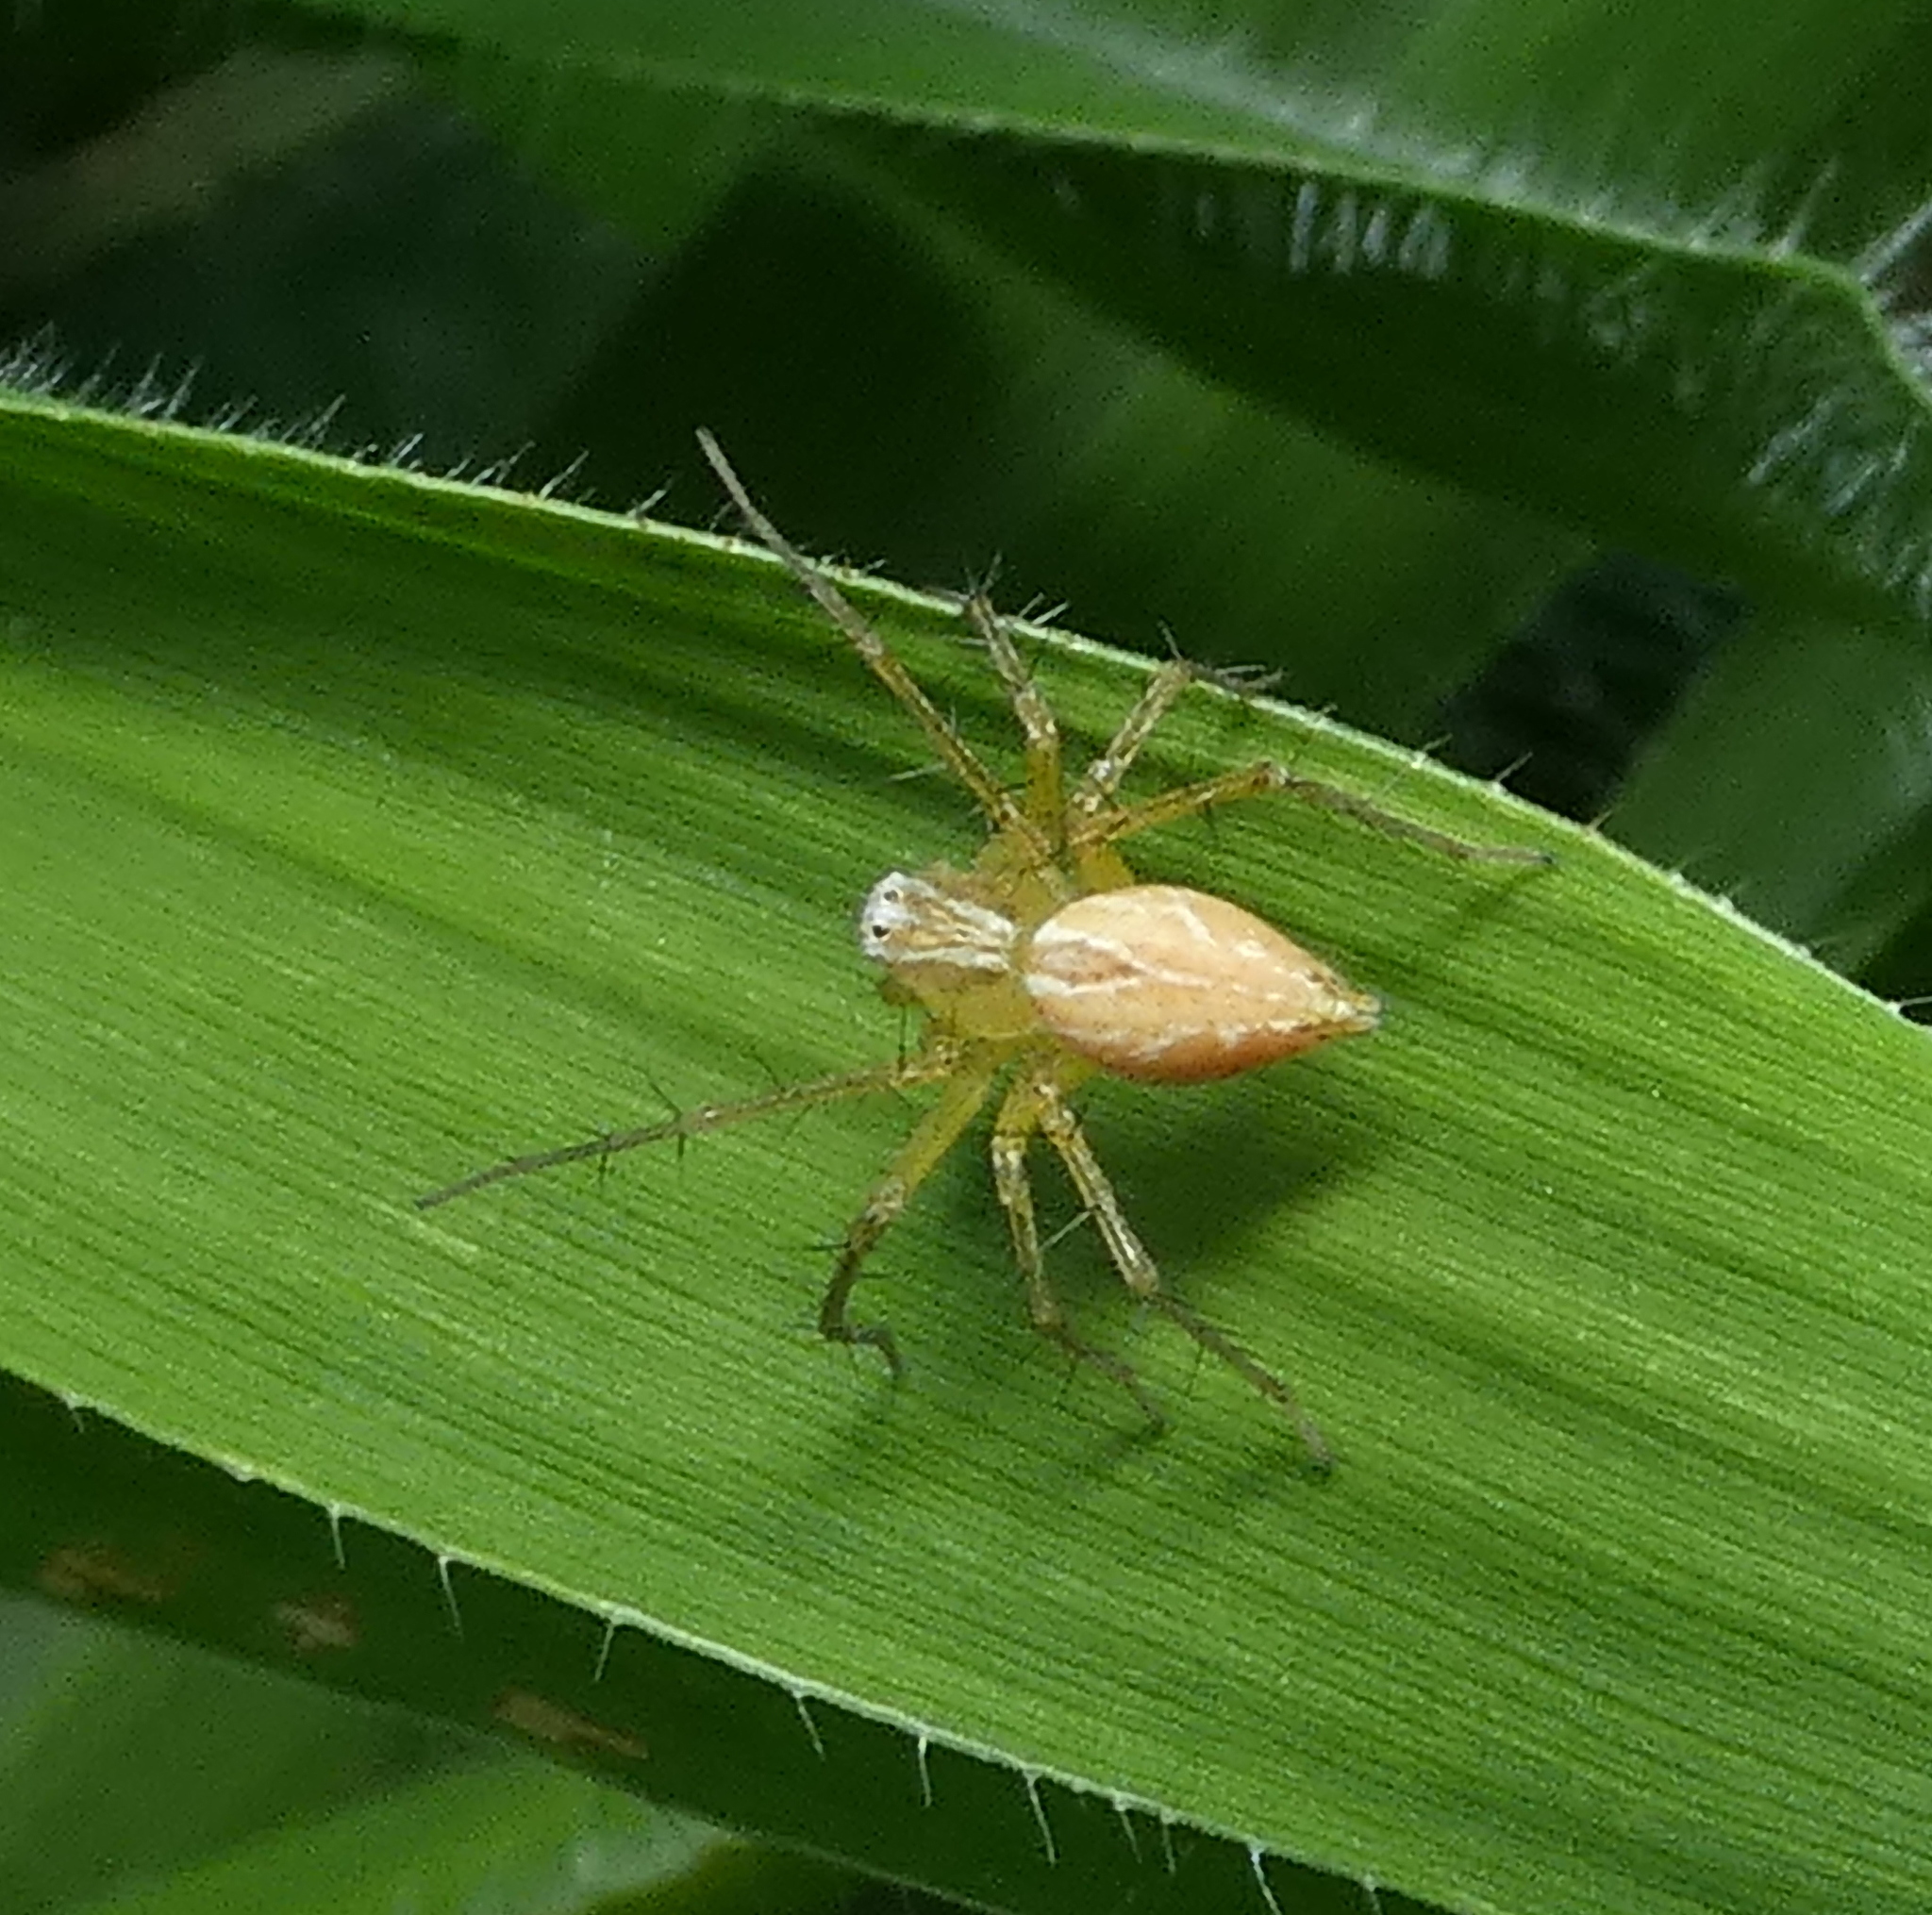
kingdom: Animalia
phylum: Arthropoda
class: Arachnida
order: Araneae
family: Oxyopidae
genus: Oxyopes
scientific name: Oxyopes salticus
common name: Lynx spiders
